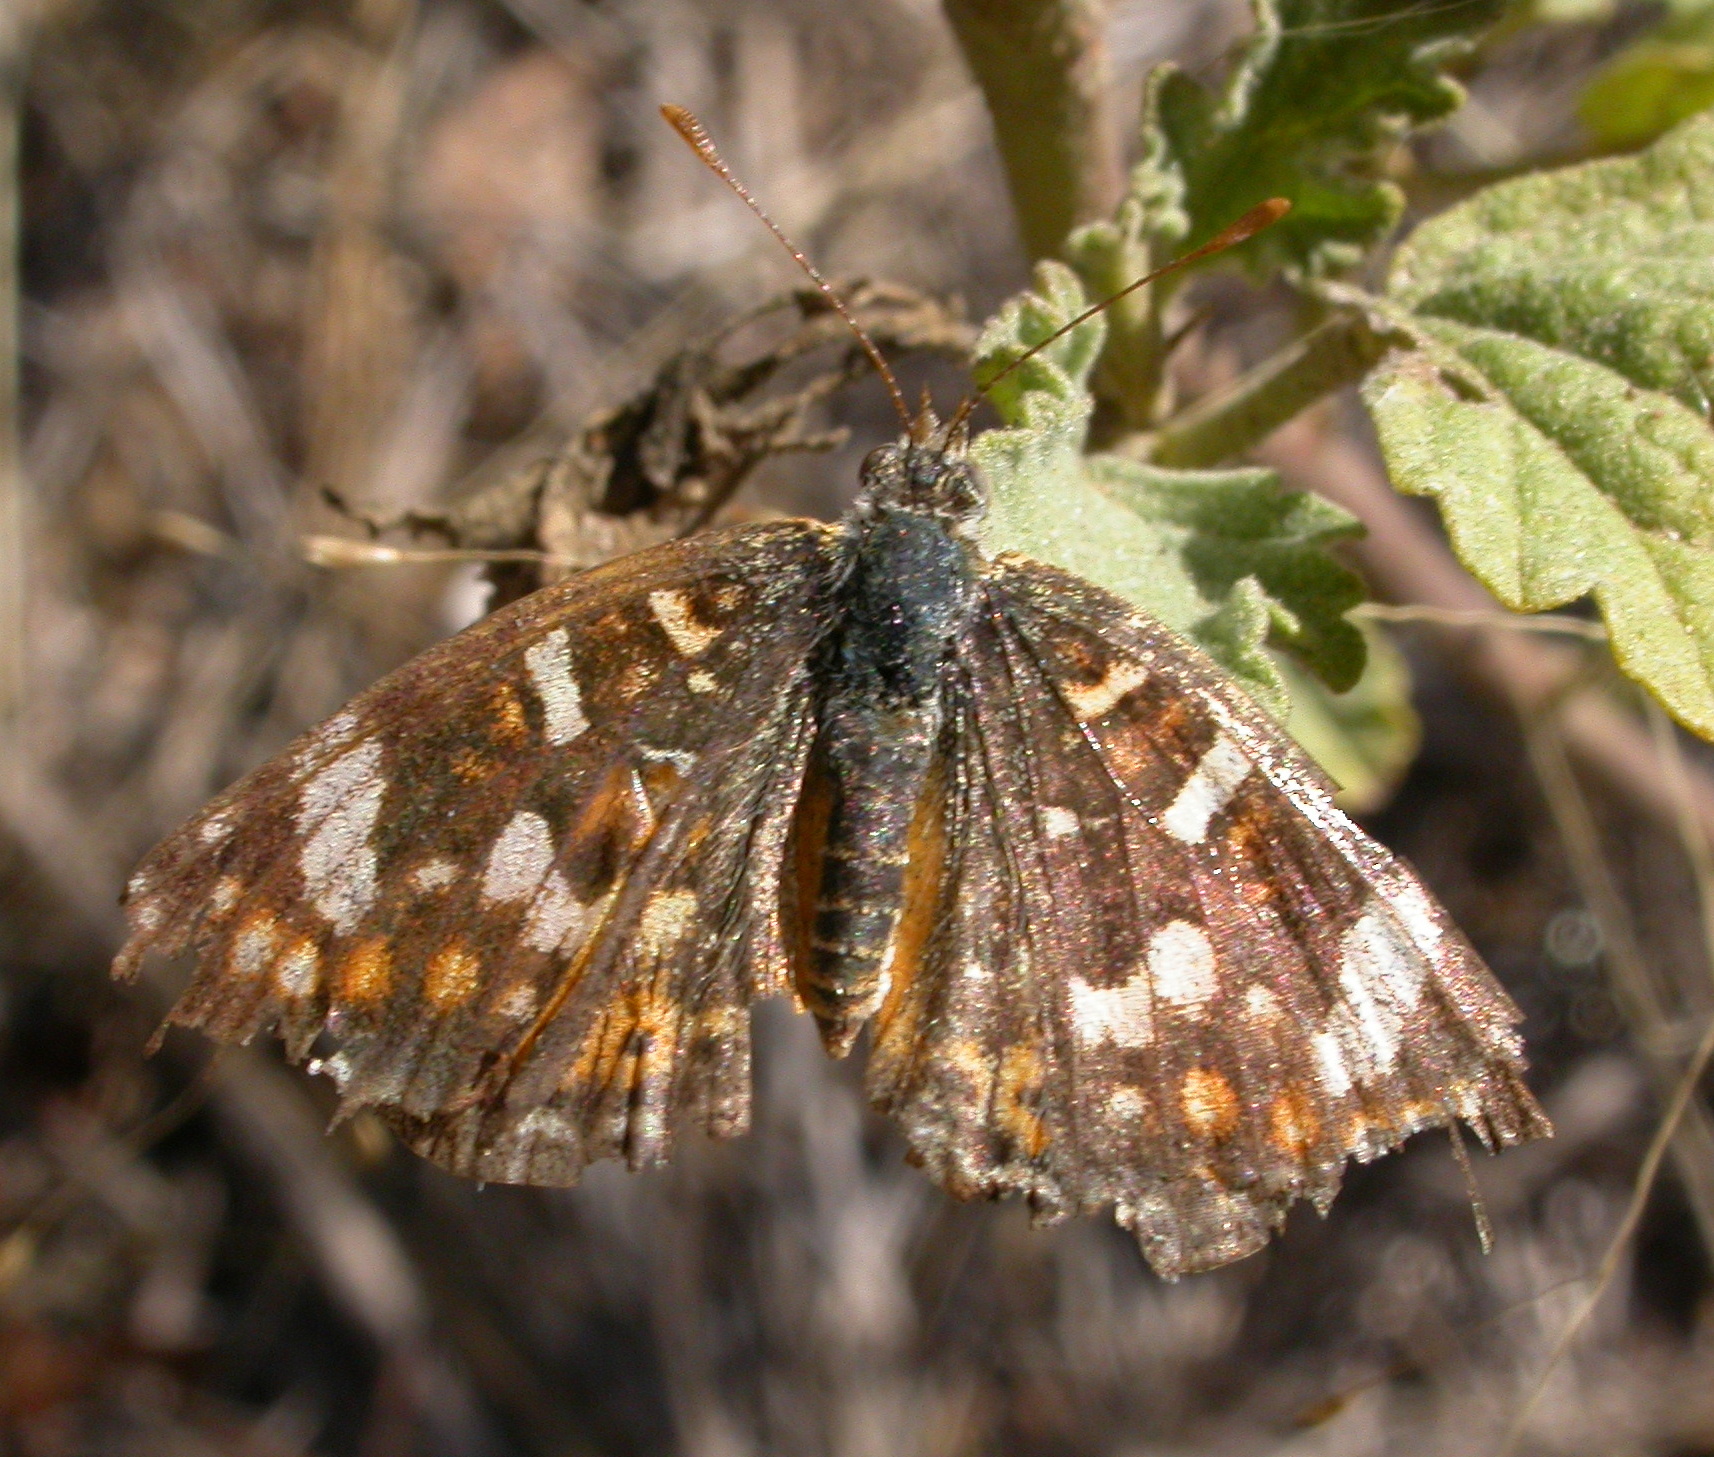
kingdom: Animalia
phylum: Arthropoda
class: Insecta
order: Lepidoptera
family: Nymphalidae
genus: Phyciodes
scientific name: Phyciodes picta
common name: Painted crescent
